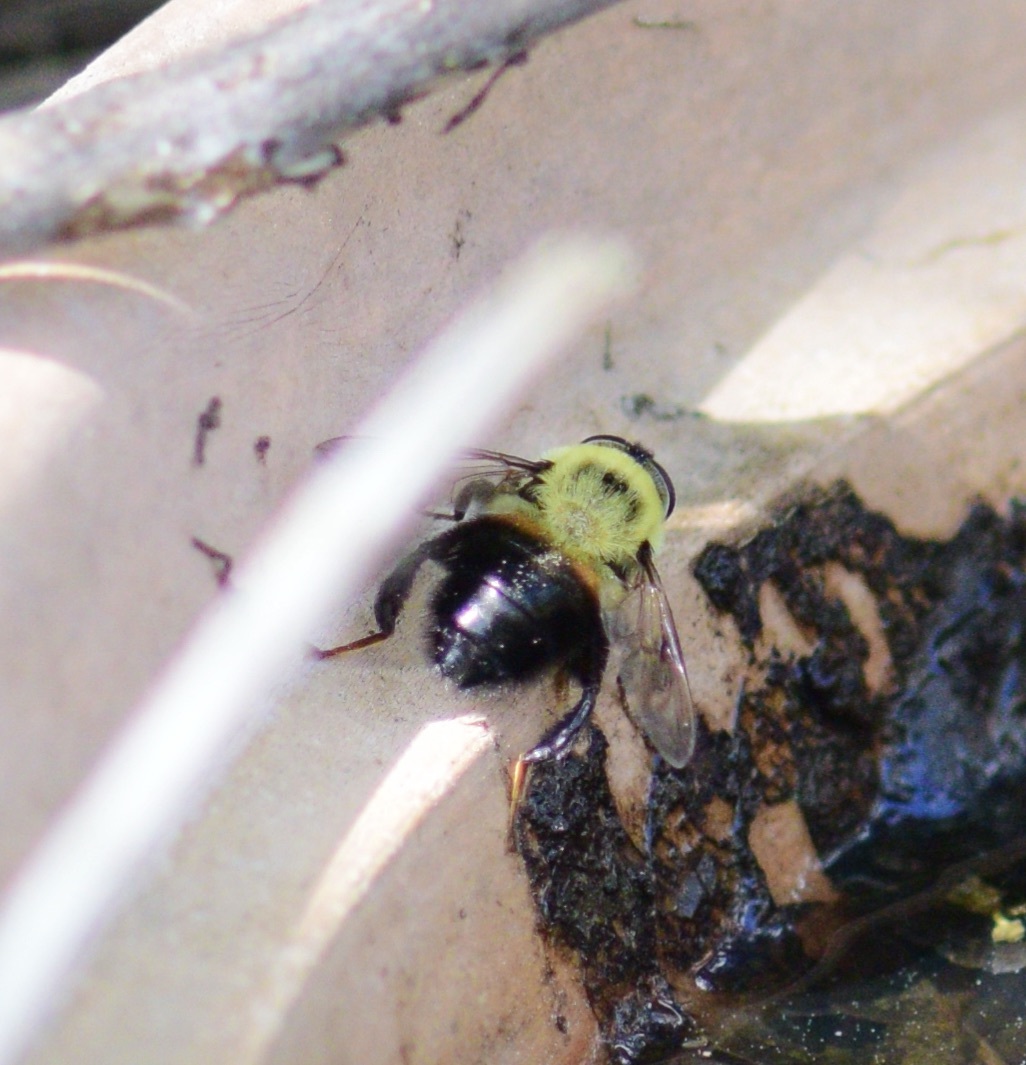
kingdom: Animalia
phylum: Arthropoda
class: Insecta
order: Diptera
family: Syrphidae
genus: Imatisma
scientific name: Imatisma posticata
